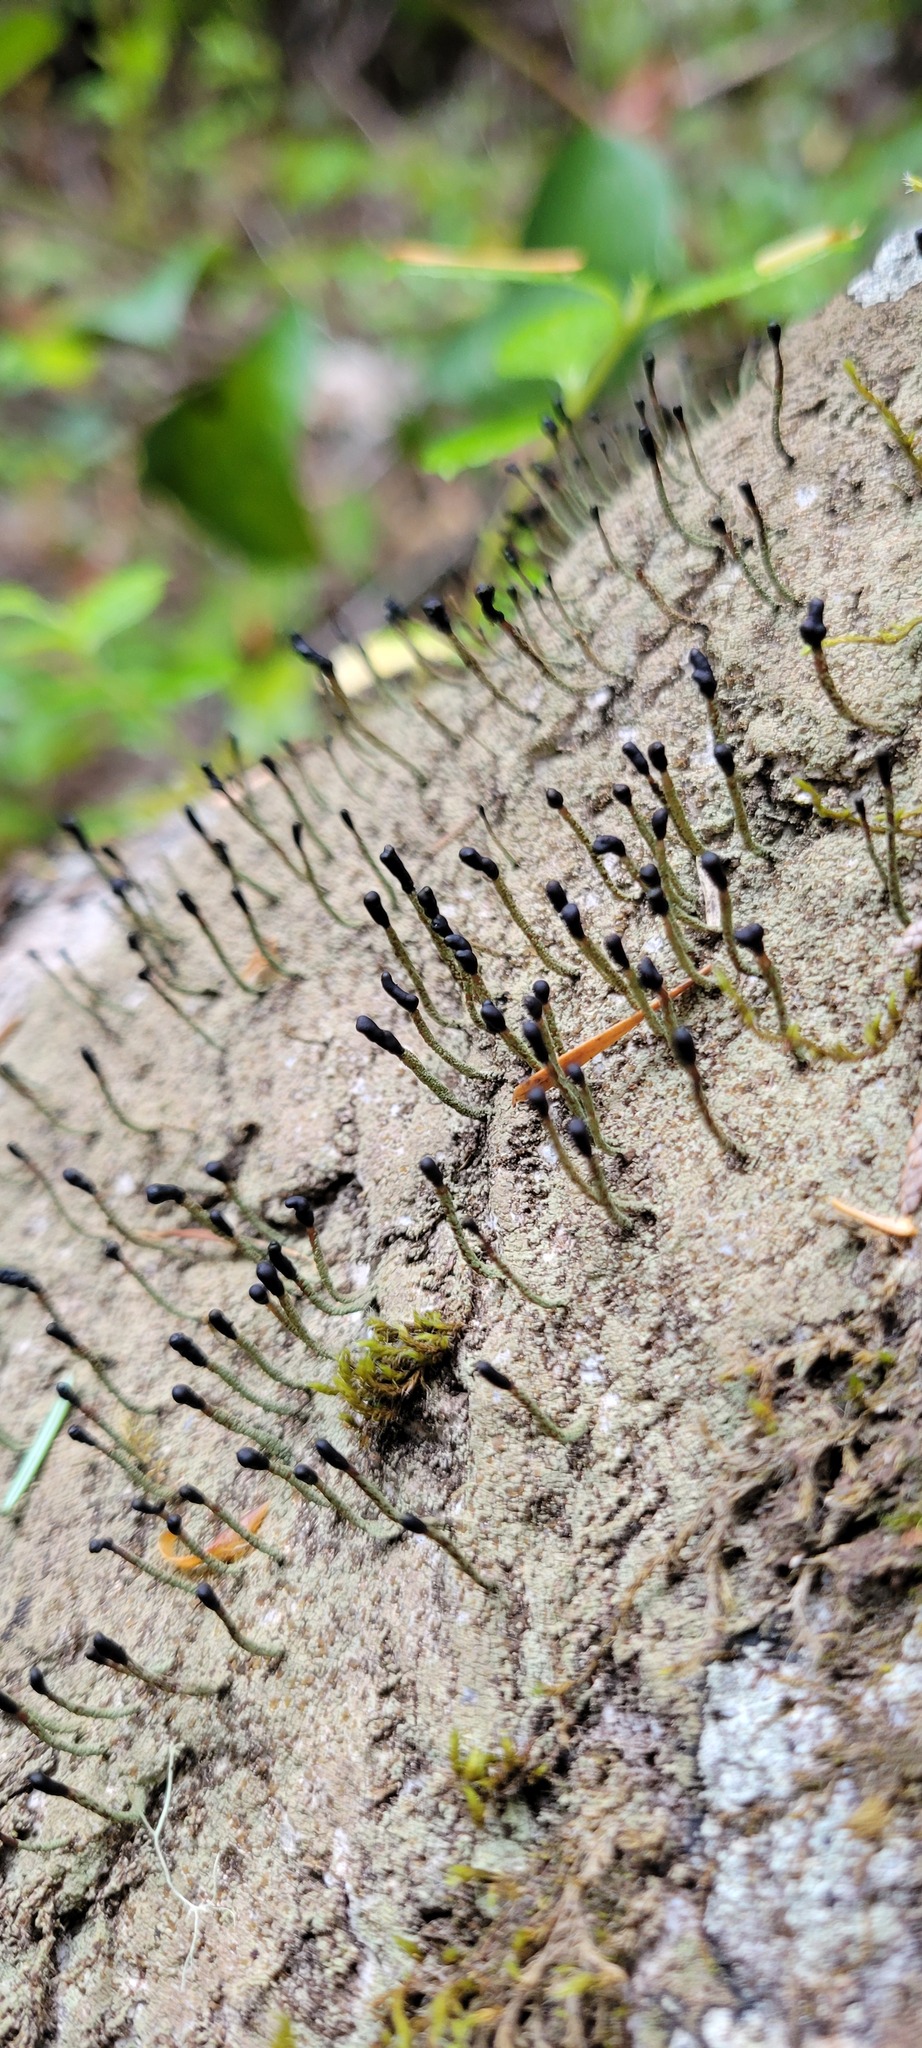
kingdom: Fungi
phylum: Ascomycota
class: Lecanoromycetes
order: Lecanorales
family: Cladoniaceae
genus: Pilophorus
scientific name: Pilophorus clavatus
